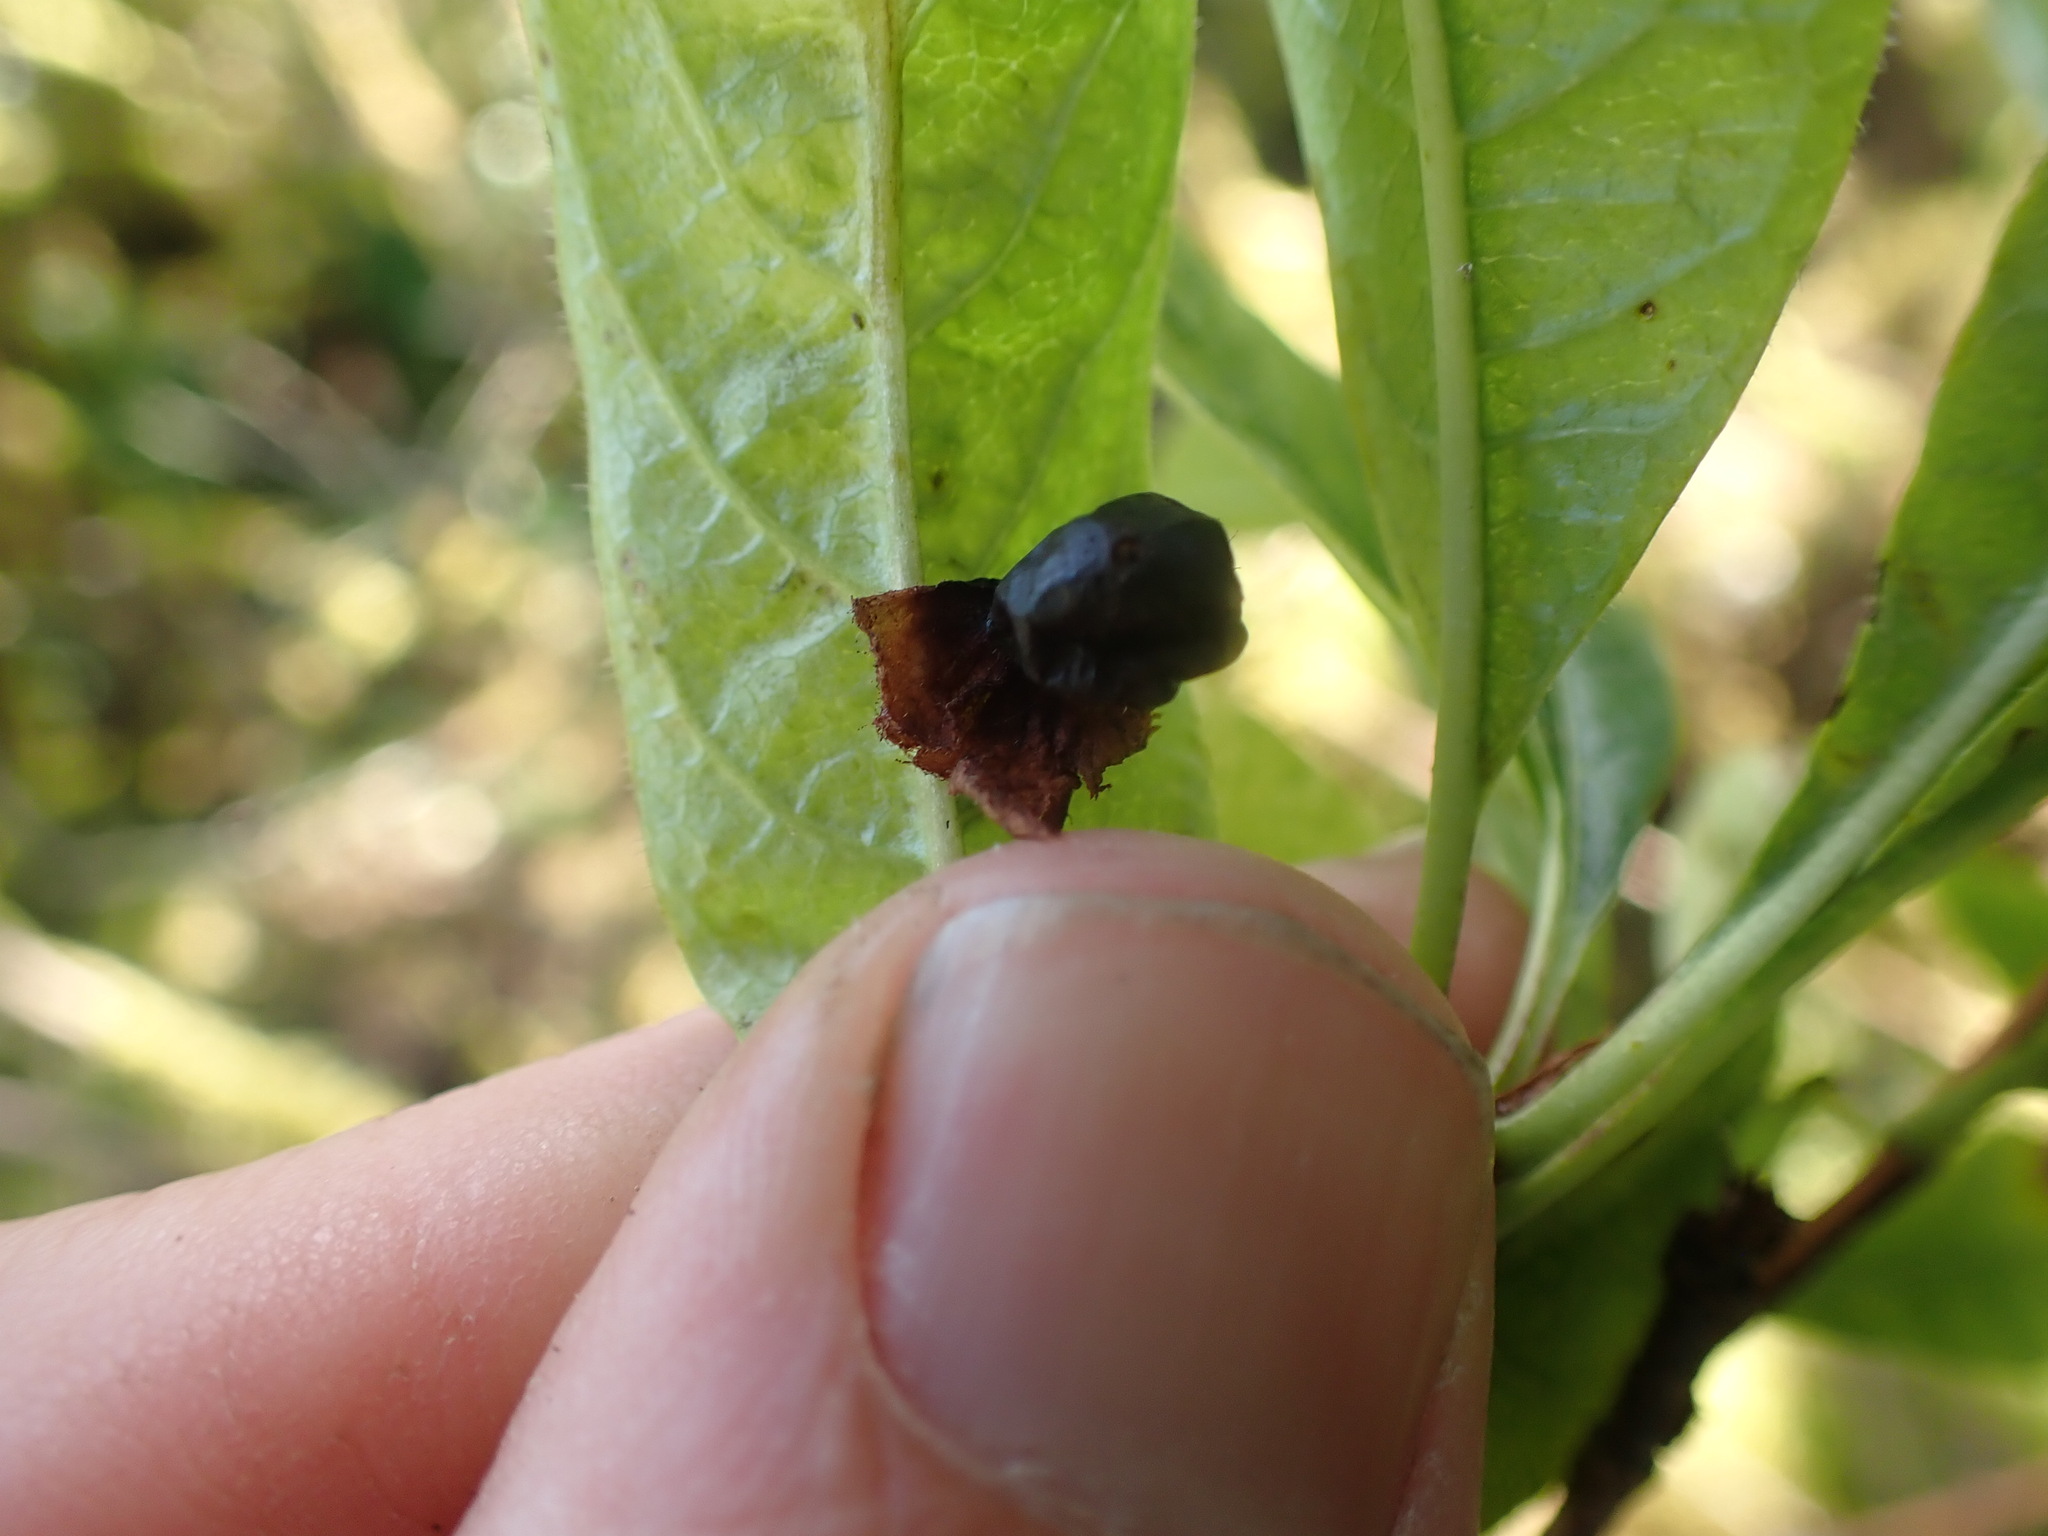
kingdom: Plantae
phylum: Tracheophyta
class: Magnoliopsida
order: Dipsacales
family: Caprifoliaceae
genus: Lonicera
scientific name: Lonicera involucrata
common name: Californian honeysuckle
